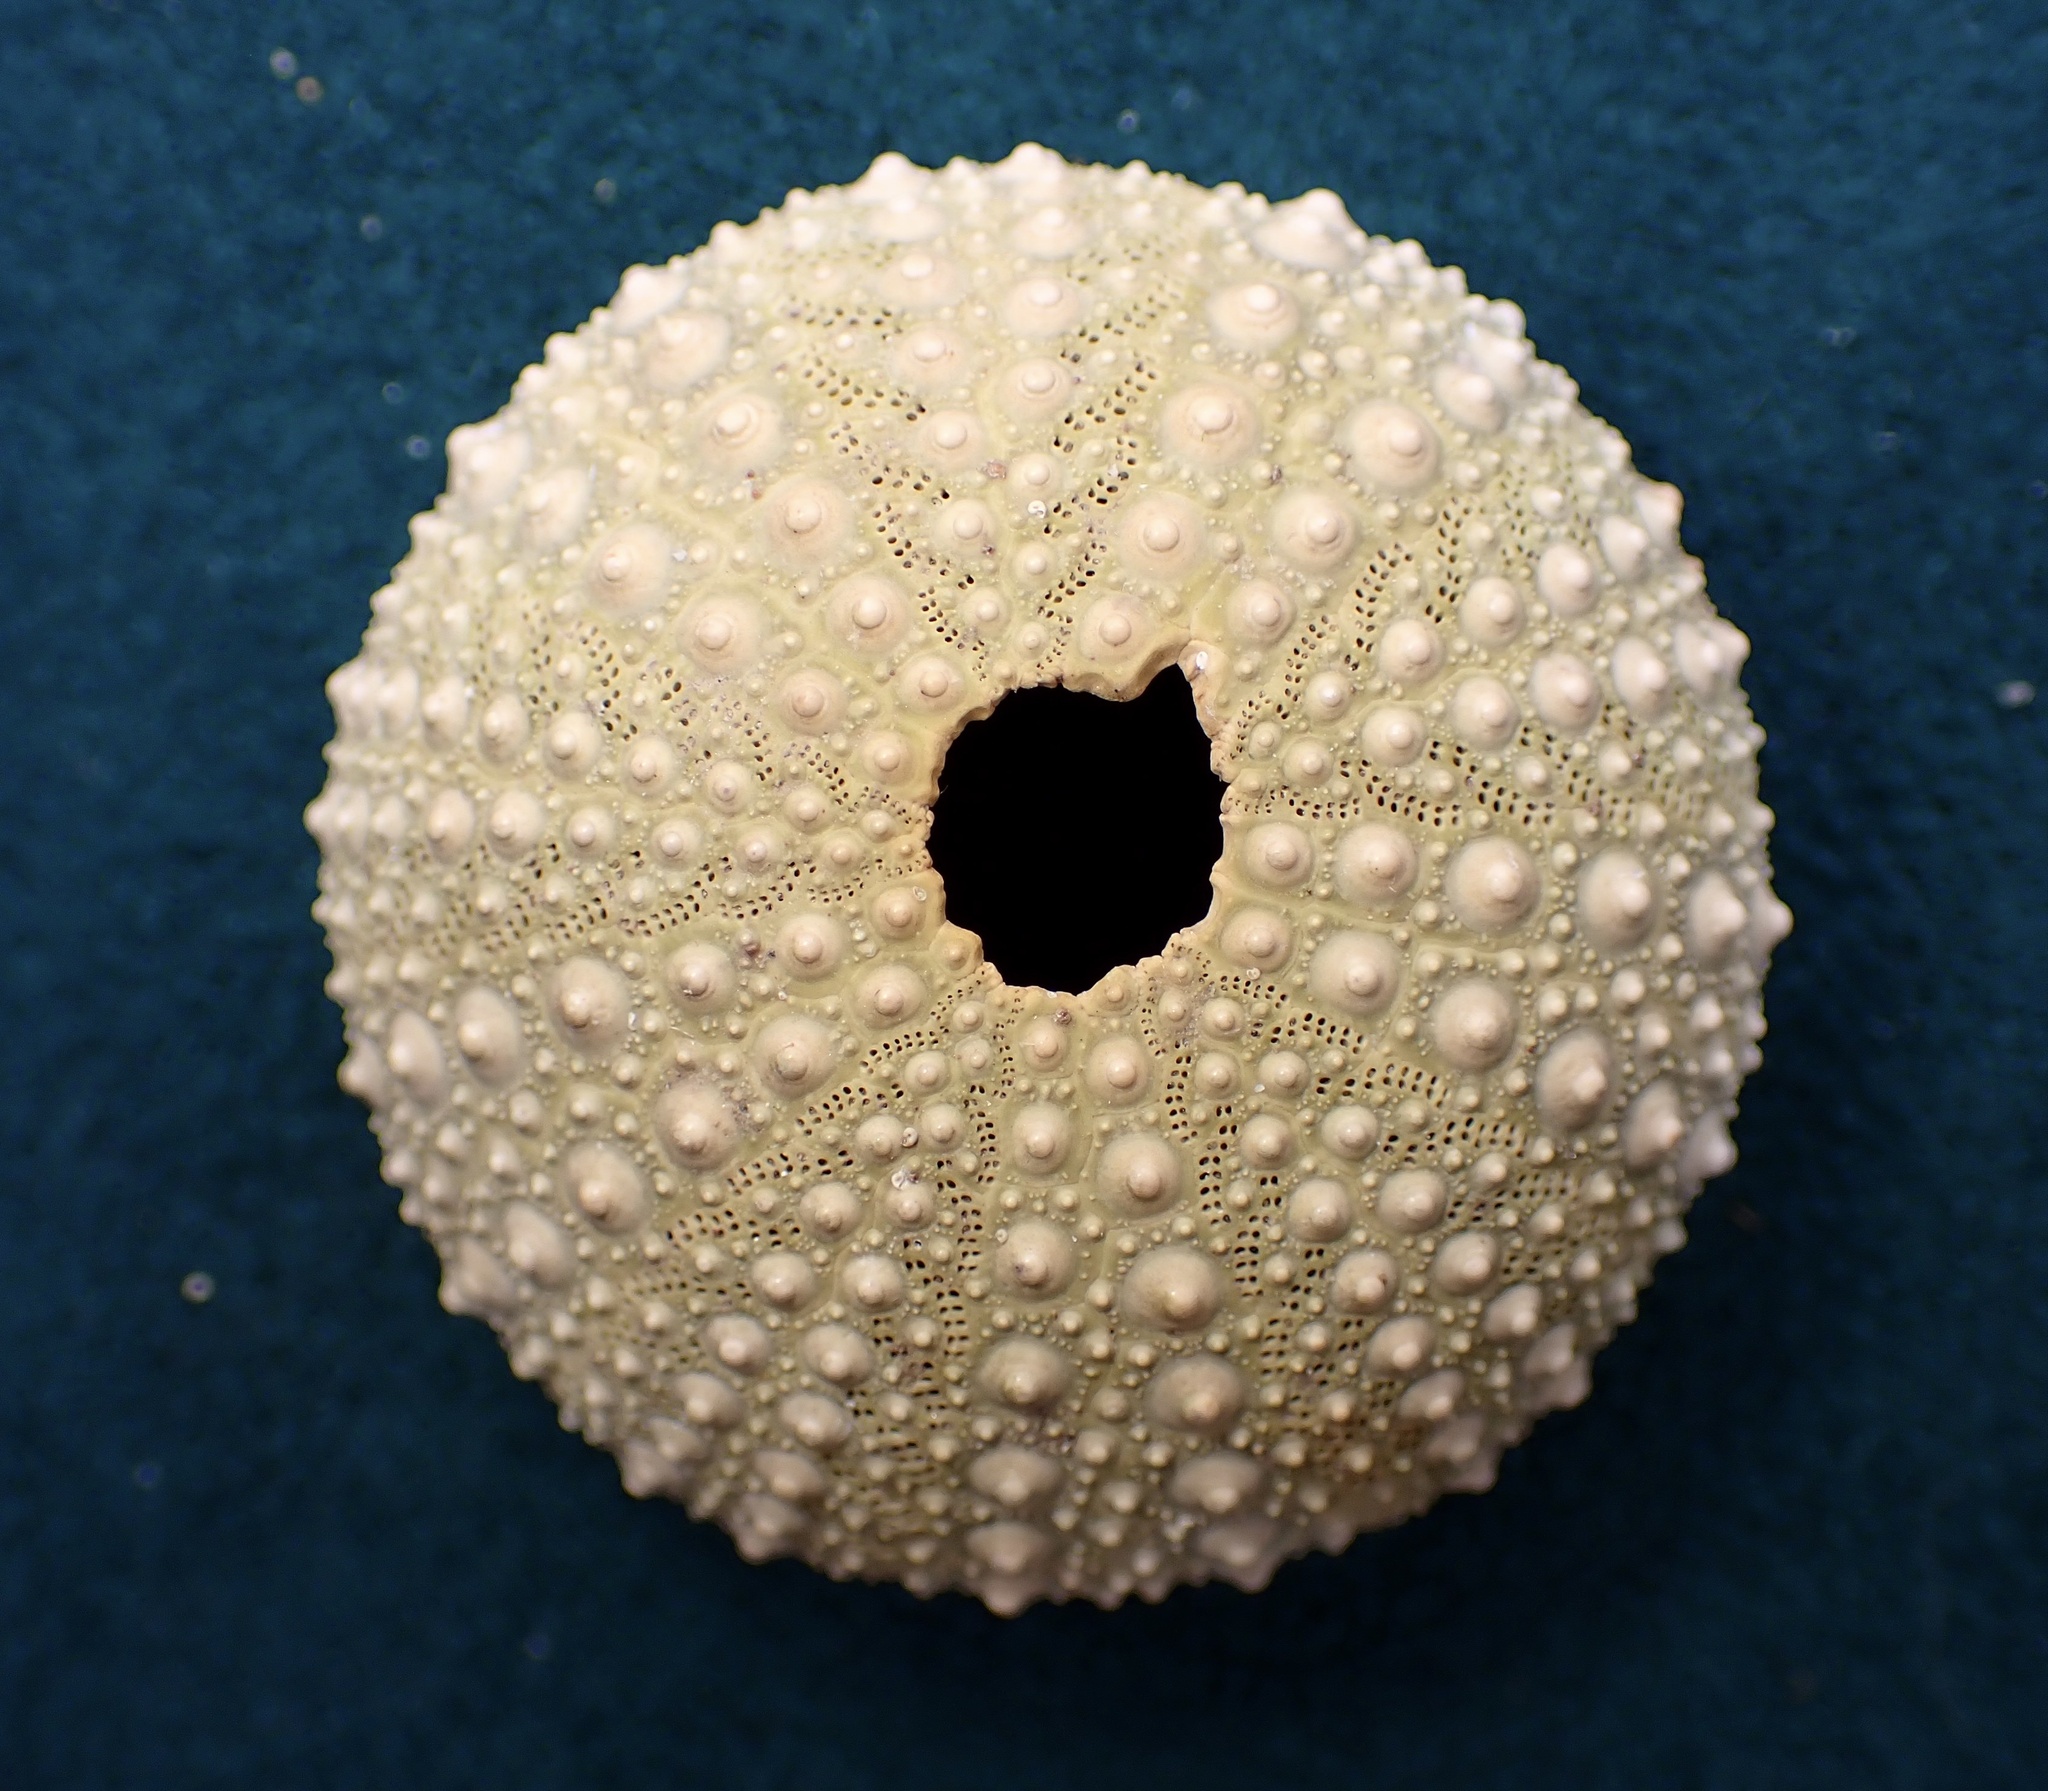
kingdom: Animalia
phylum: Echinodermata
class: Echinoidea
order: Camarodonta
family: Strongylocentrotidae
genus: Strongylocentrotus
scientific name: Strongylocentrotus purpuratus
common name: Purple sea urchin
